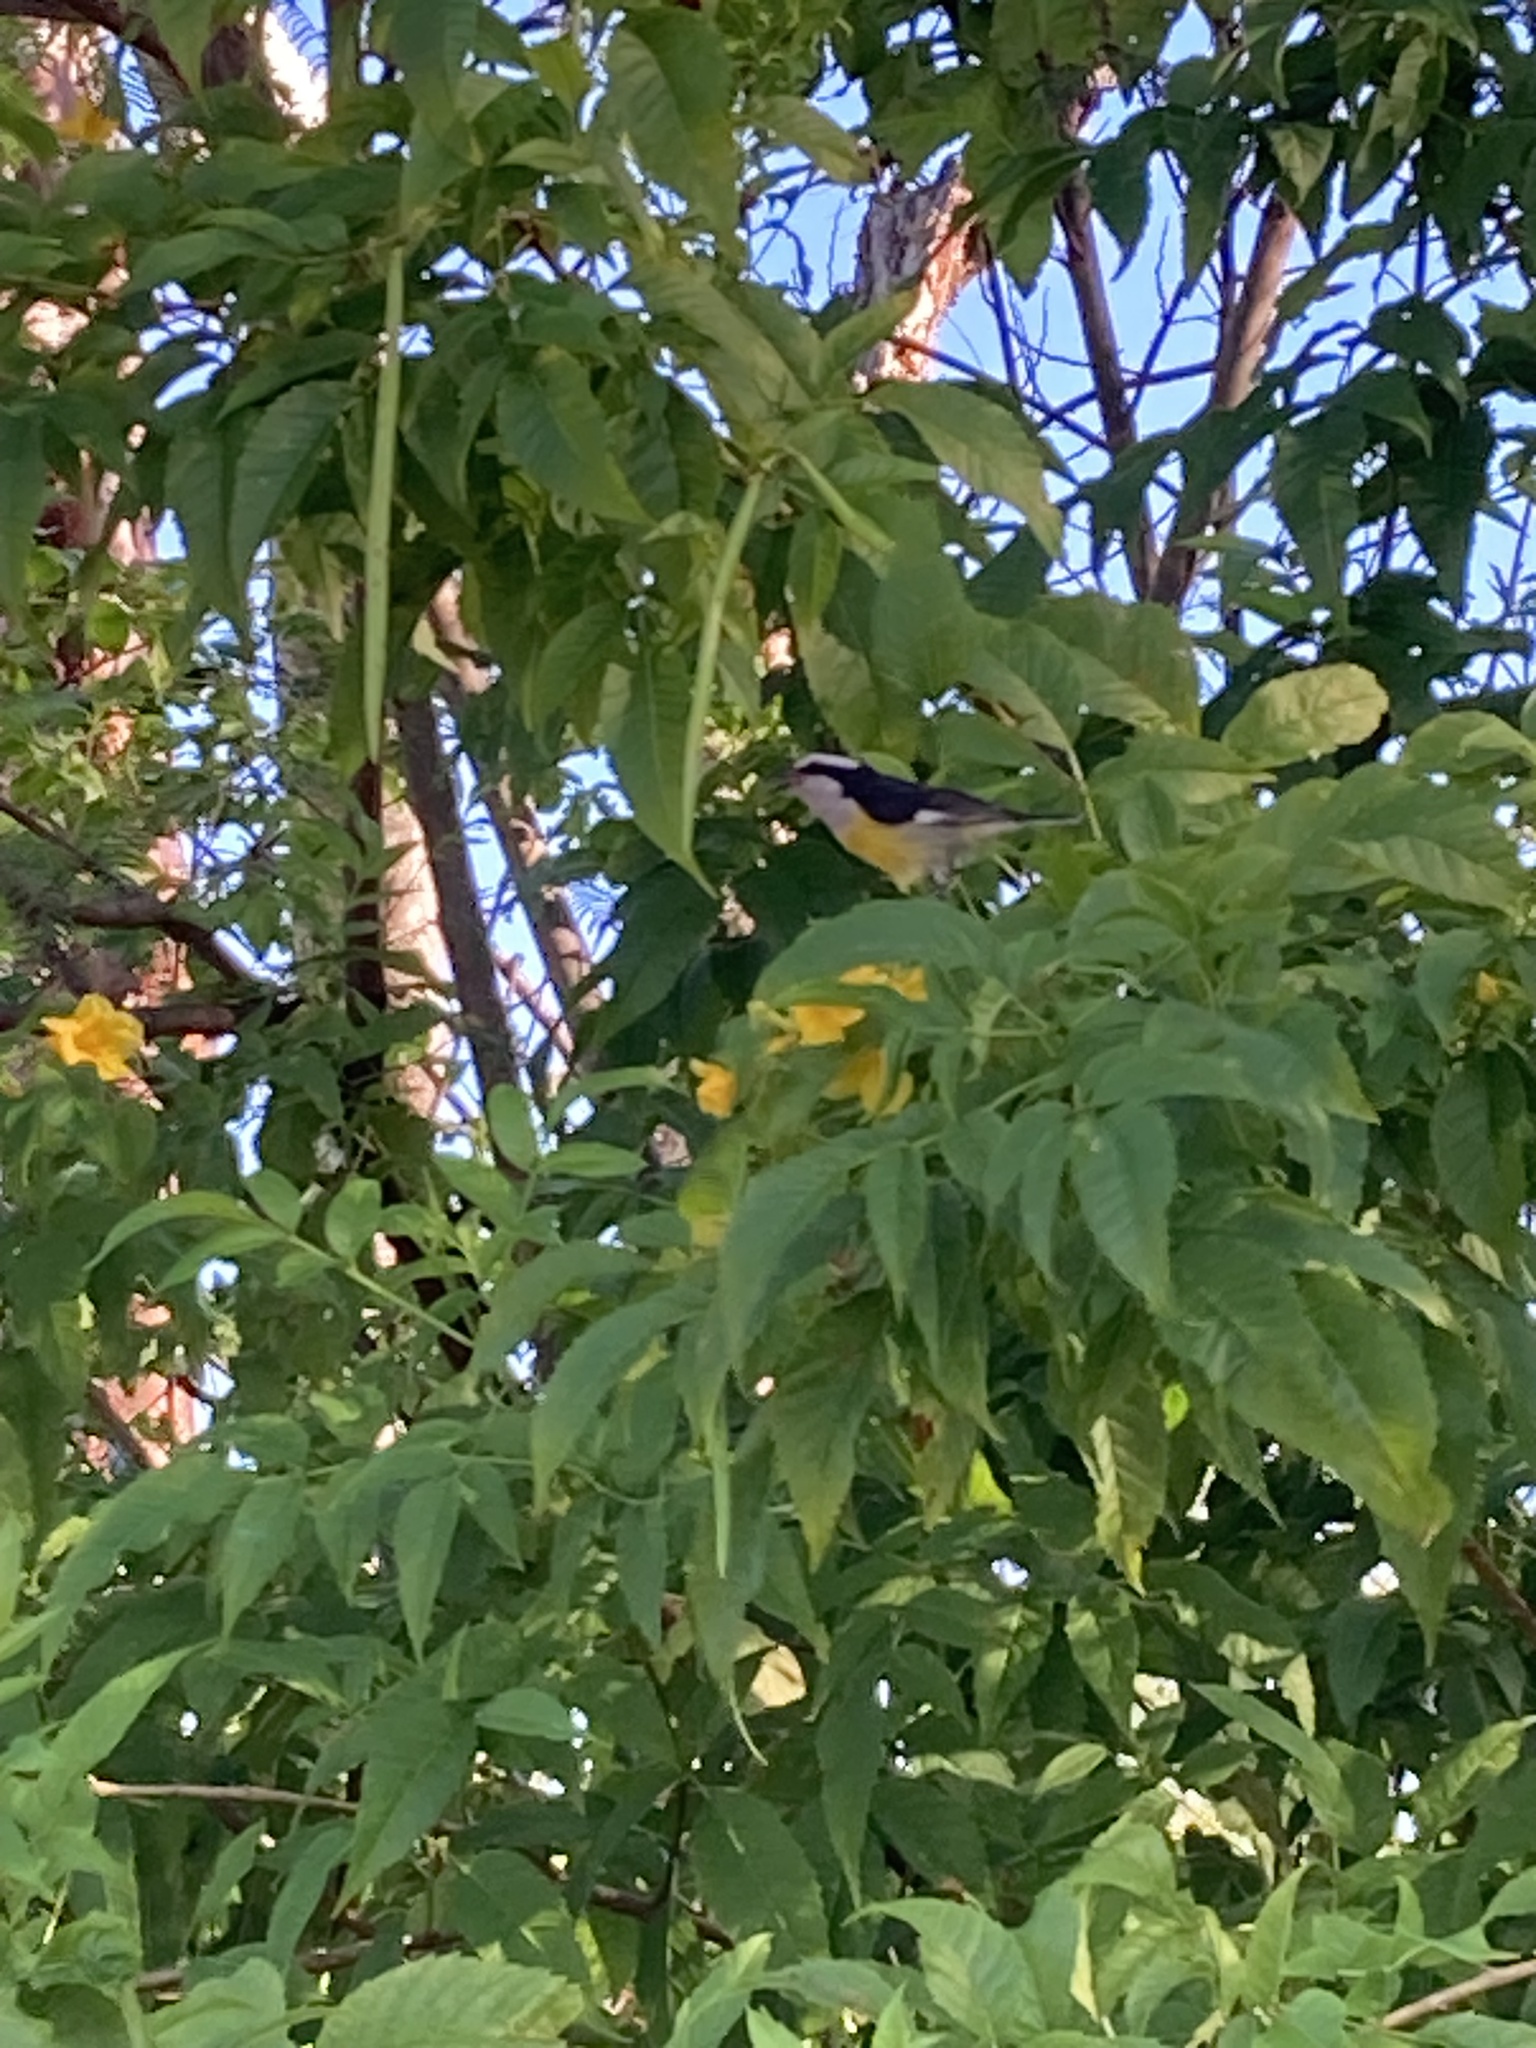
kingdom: Animalia
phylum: Chordata
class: Aves
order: Passeriformes
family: Thraupidae
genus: Coereba
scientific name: Coereba flaveola
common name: Bananaquit
